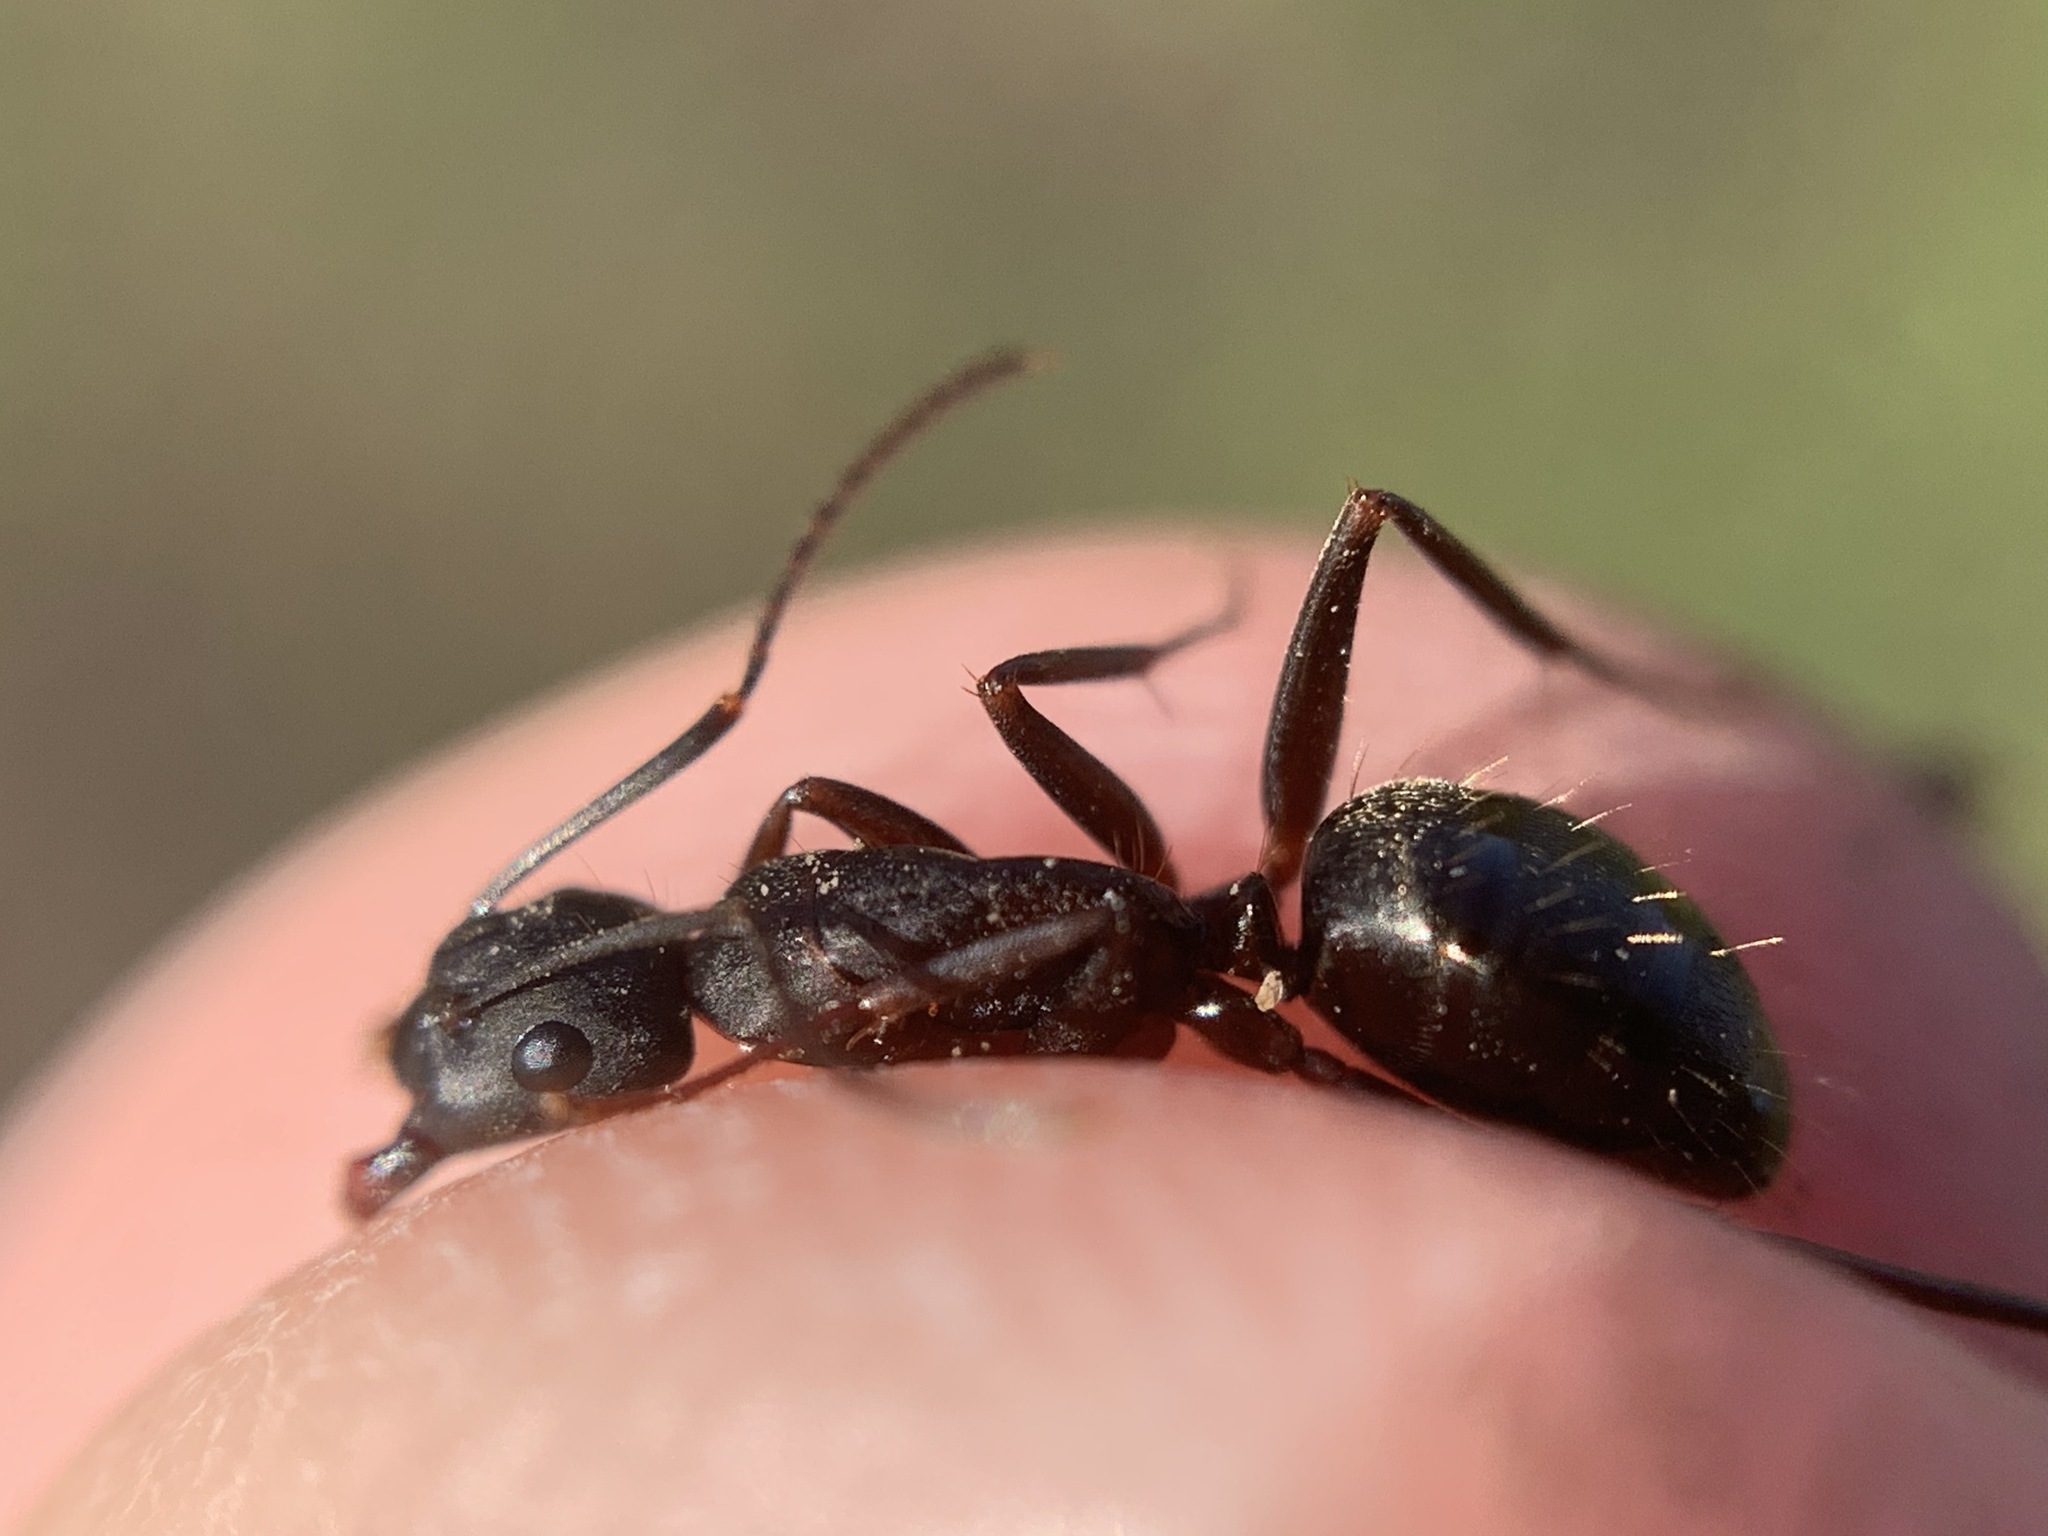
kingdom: Animalia
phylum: Arthropoda
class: Insecta
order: Hymenoptera
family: Formicidae
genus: Camponotus
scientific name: Camponotus vicinus
